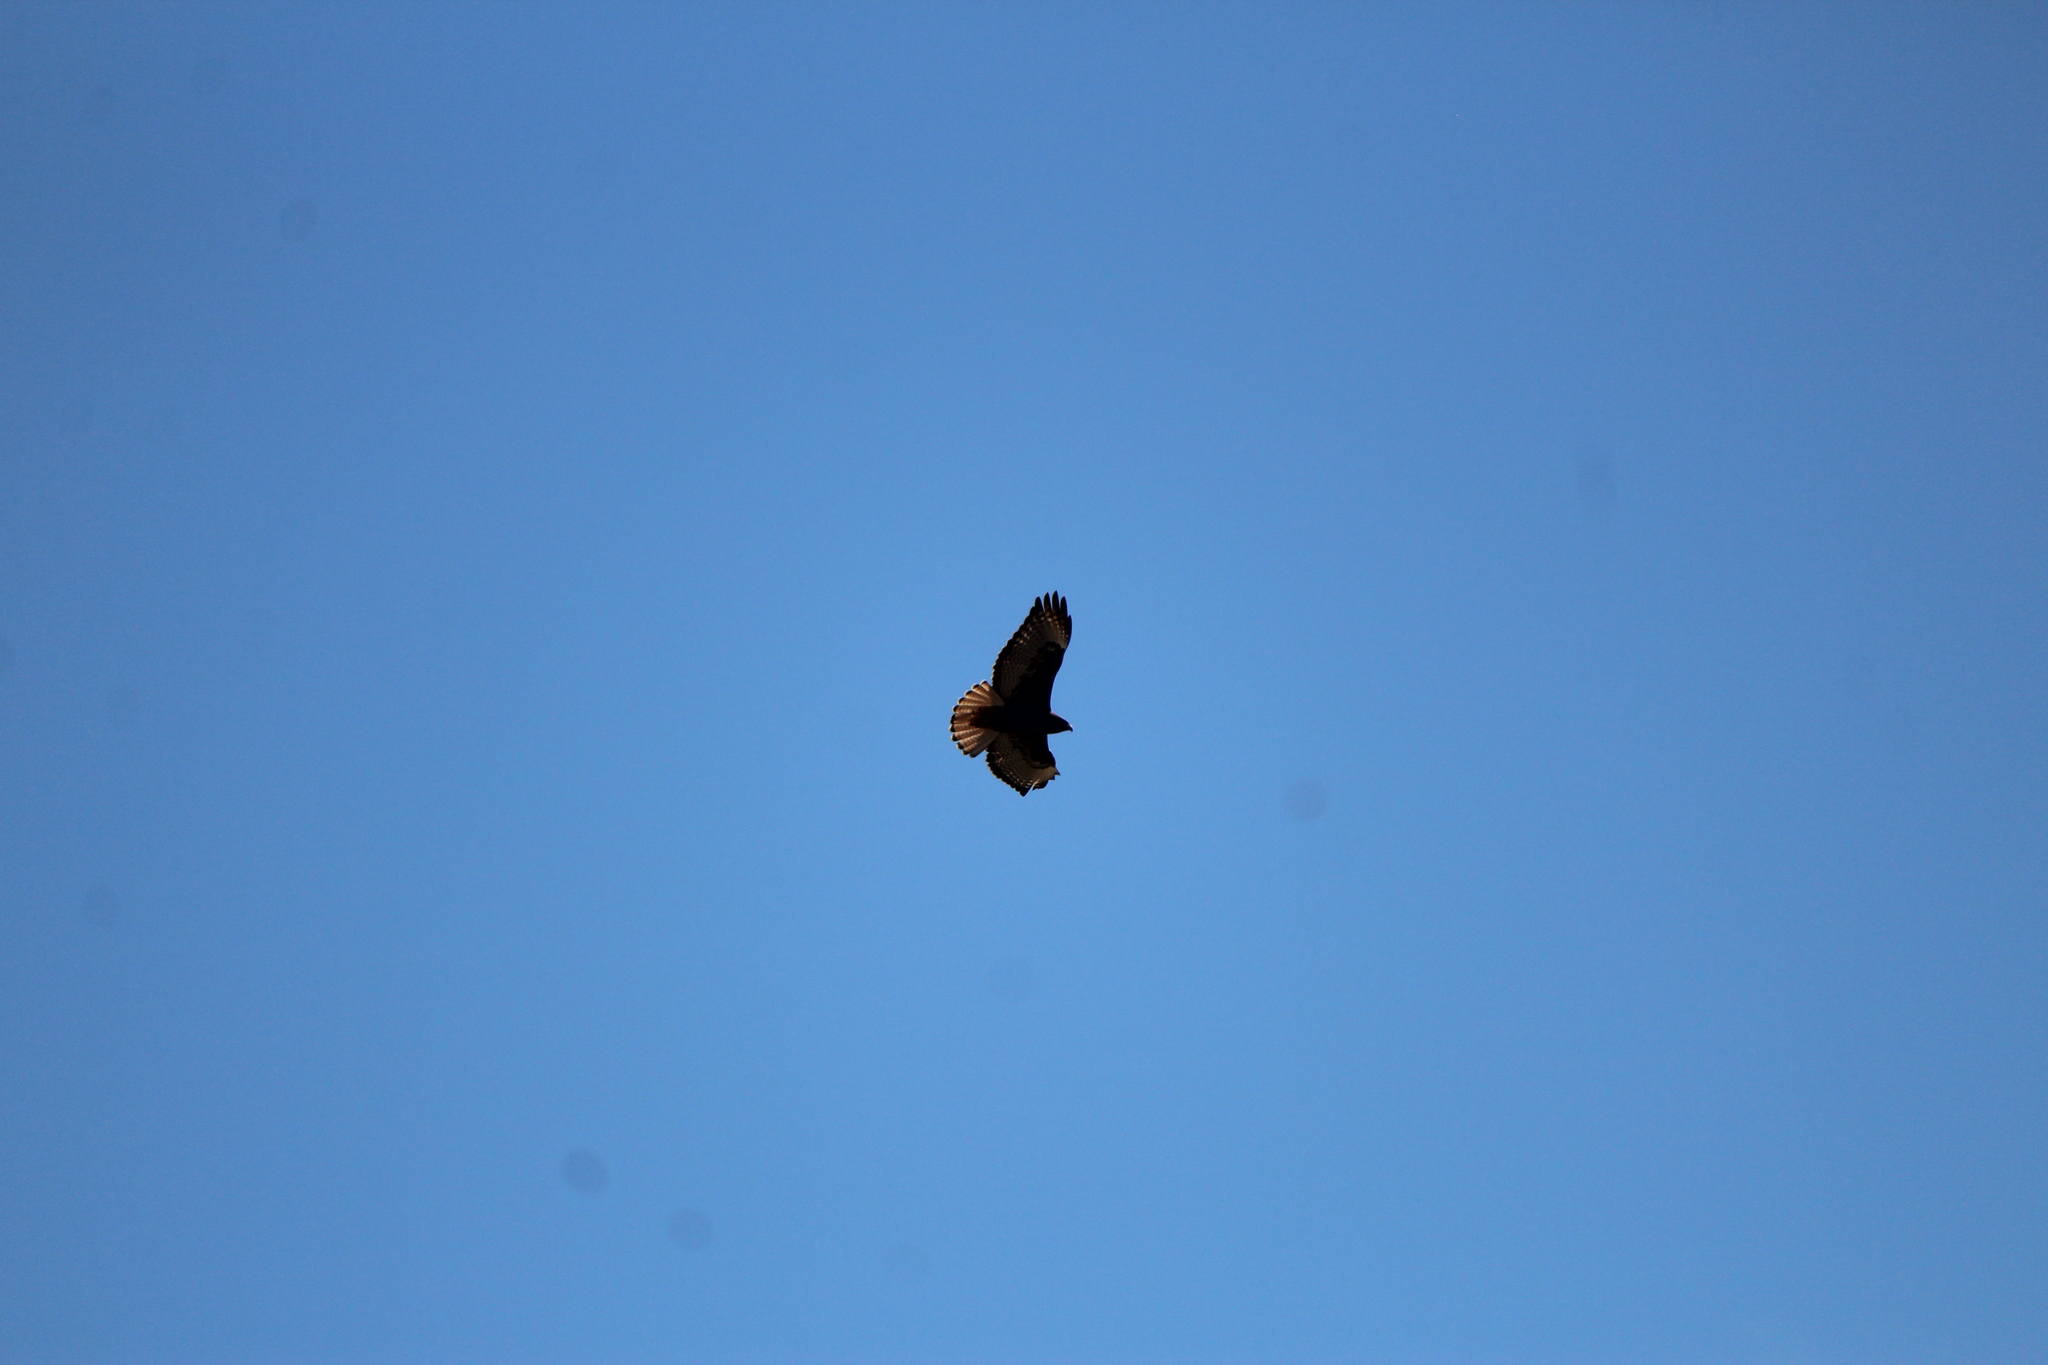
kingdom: Animalia
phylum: Chordata
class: Aves
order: Accipitriformes
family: Accipitridae
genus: Buteo
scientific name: Buteo jamaicensis
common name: Red-tailed hawk
